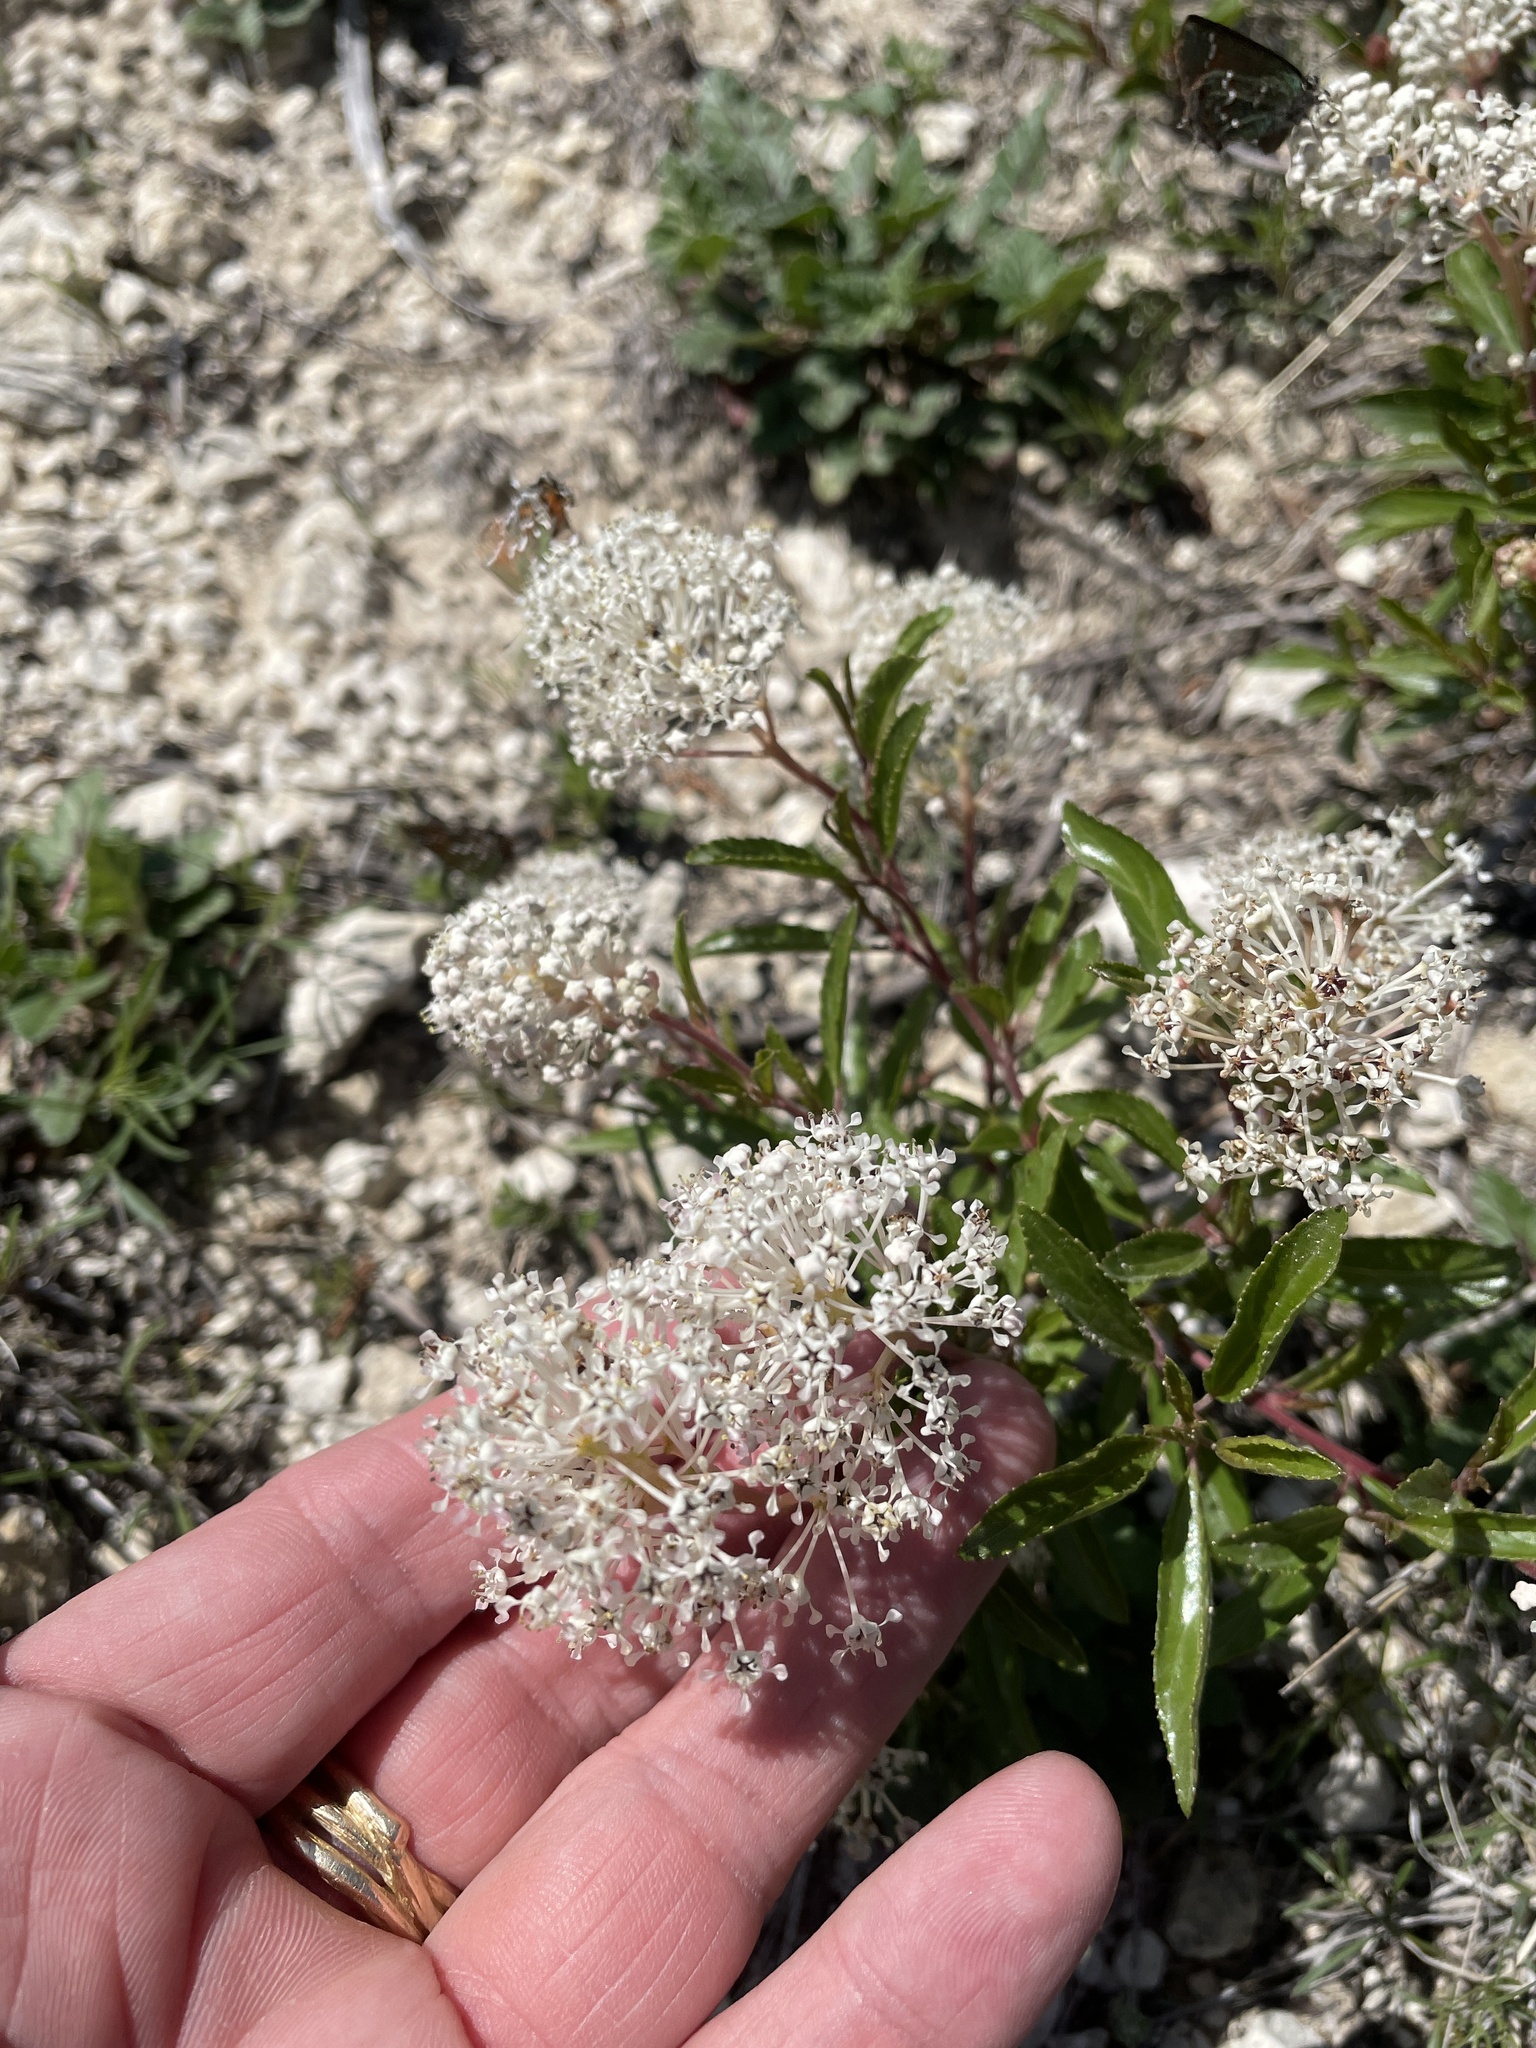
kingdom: Plantae
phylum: Tracheophyta
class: Magnoliopsida
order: Rosales
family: Rhamnaceae
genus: Ceanothus
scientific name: Ceanothus herbaceus
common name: Inland ceanothus
